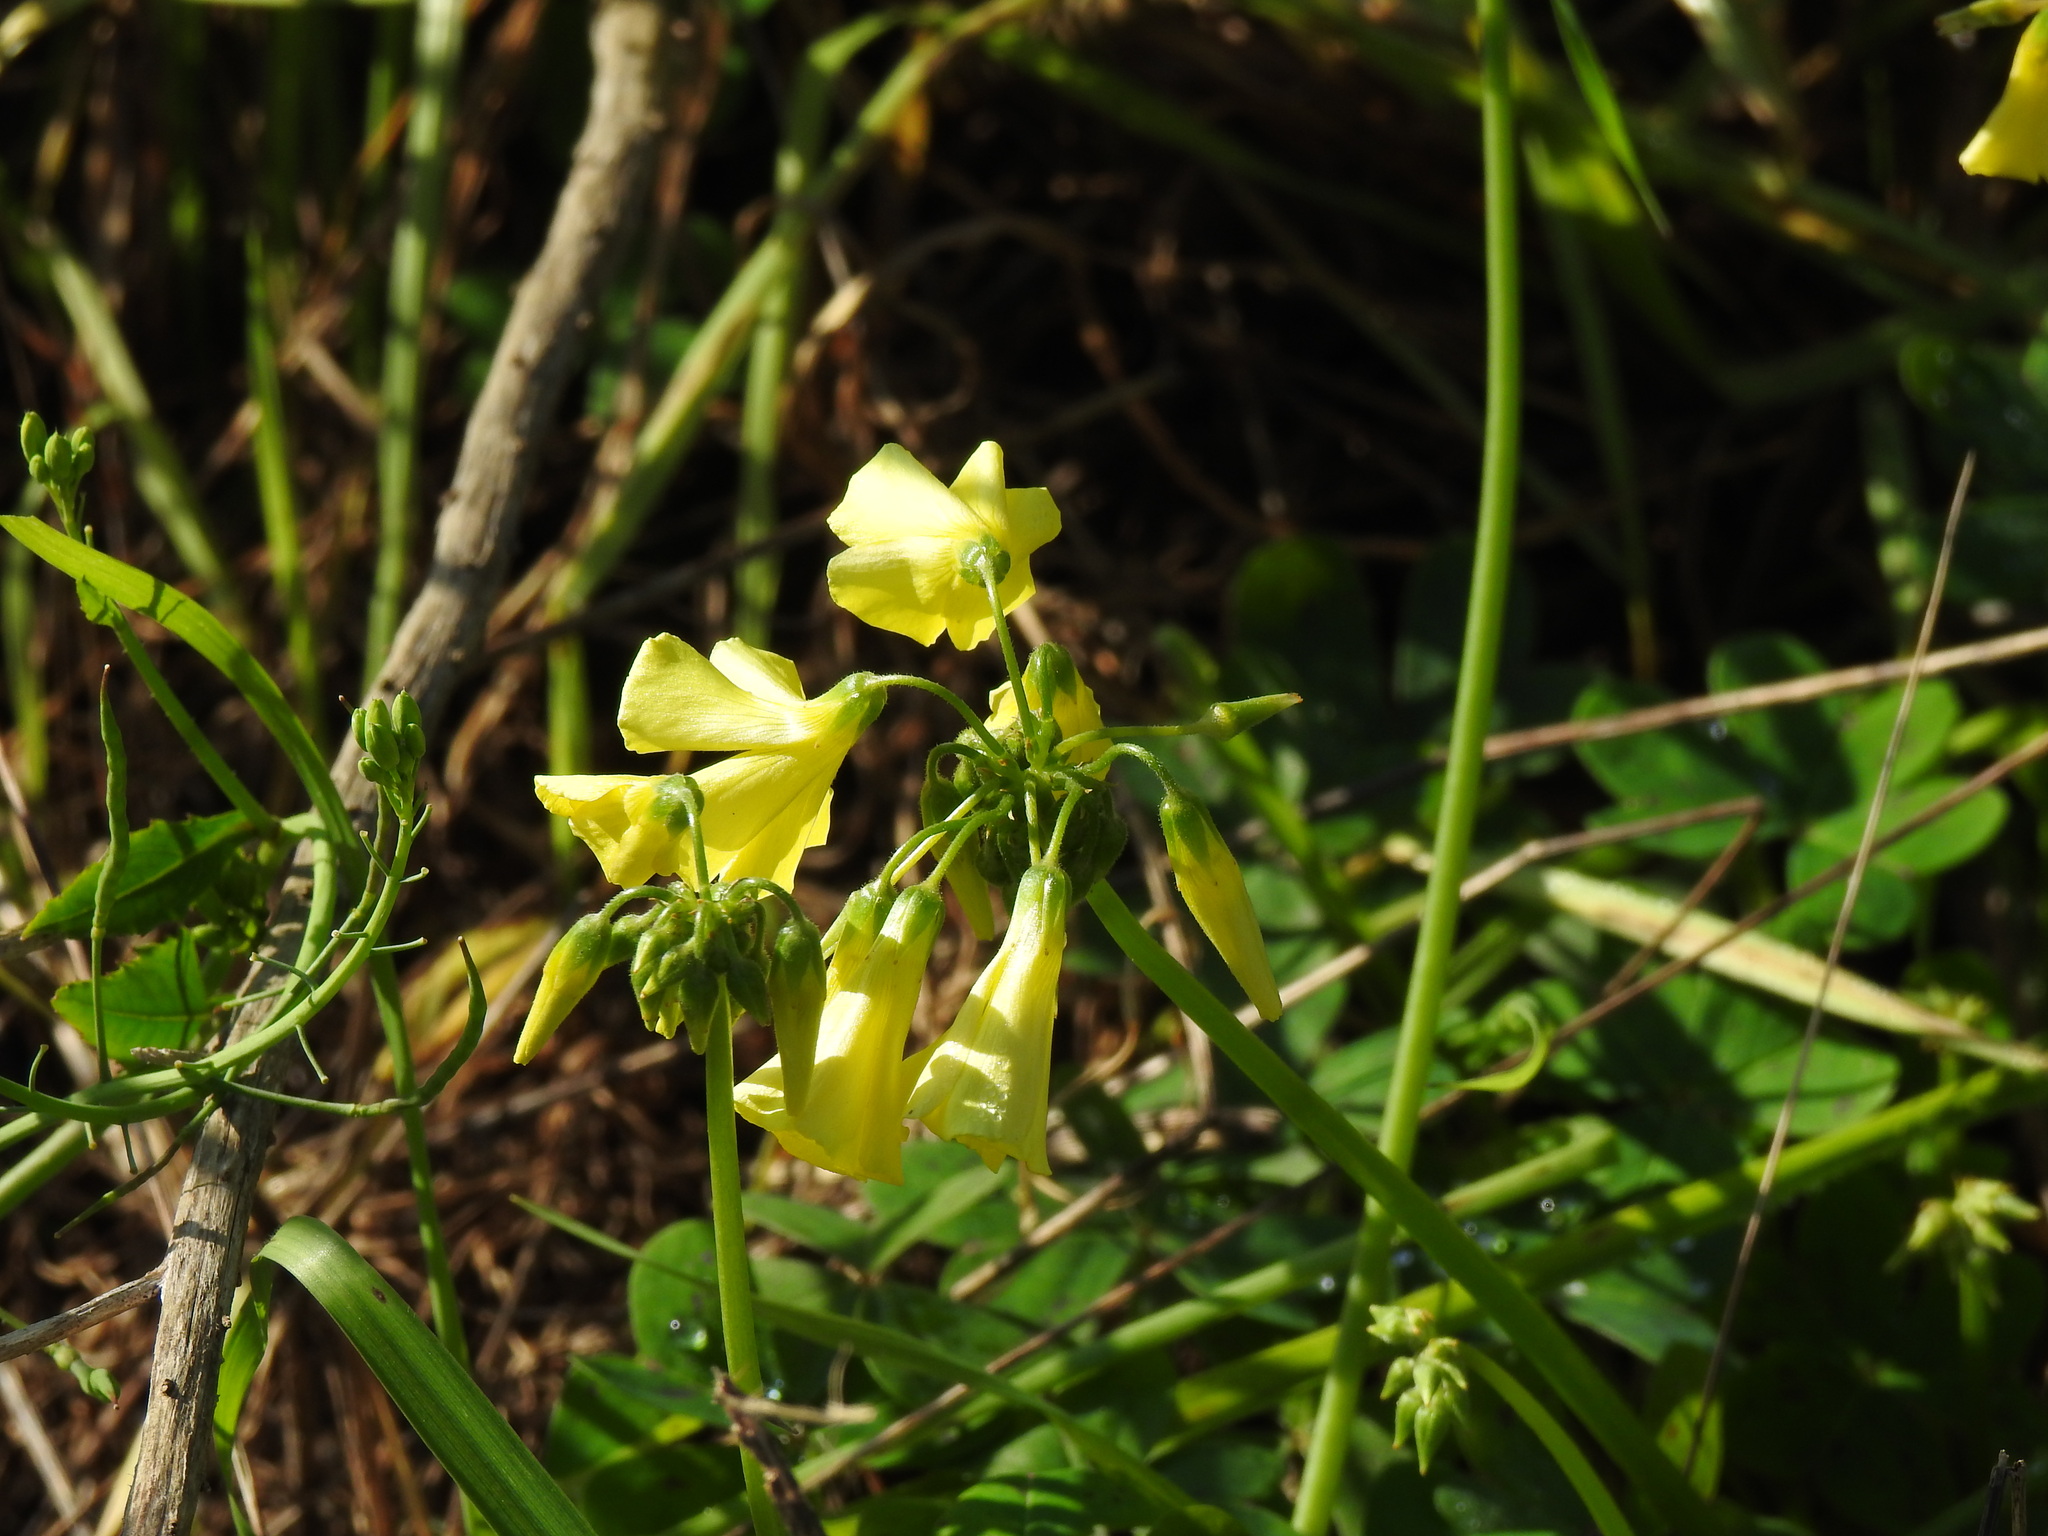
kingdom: Plantae
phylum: Tracheophyta
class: Magnoliopsida
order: Oxalidales
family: Oxalidaceae
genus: Oxalis
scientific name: Oxalis pes-caprae
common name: Bermuda-buttercup
